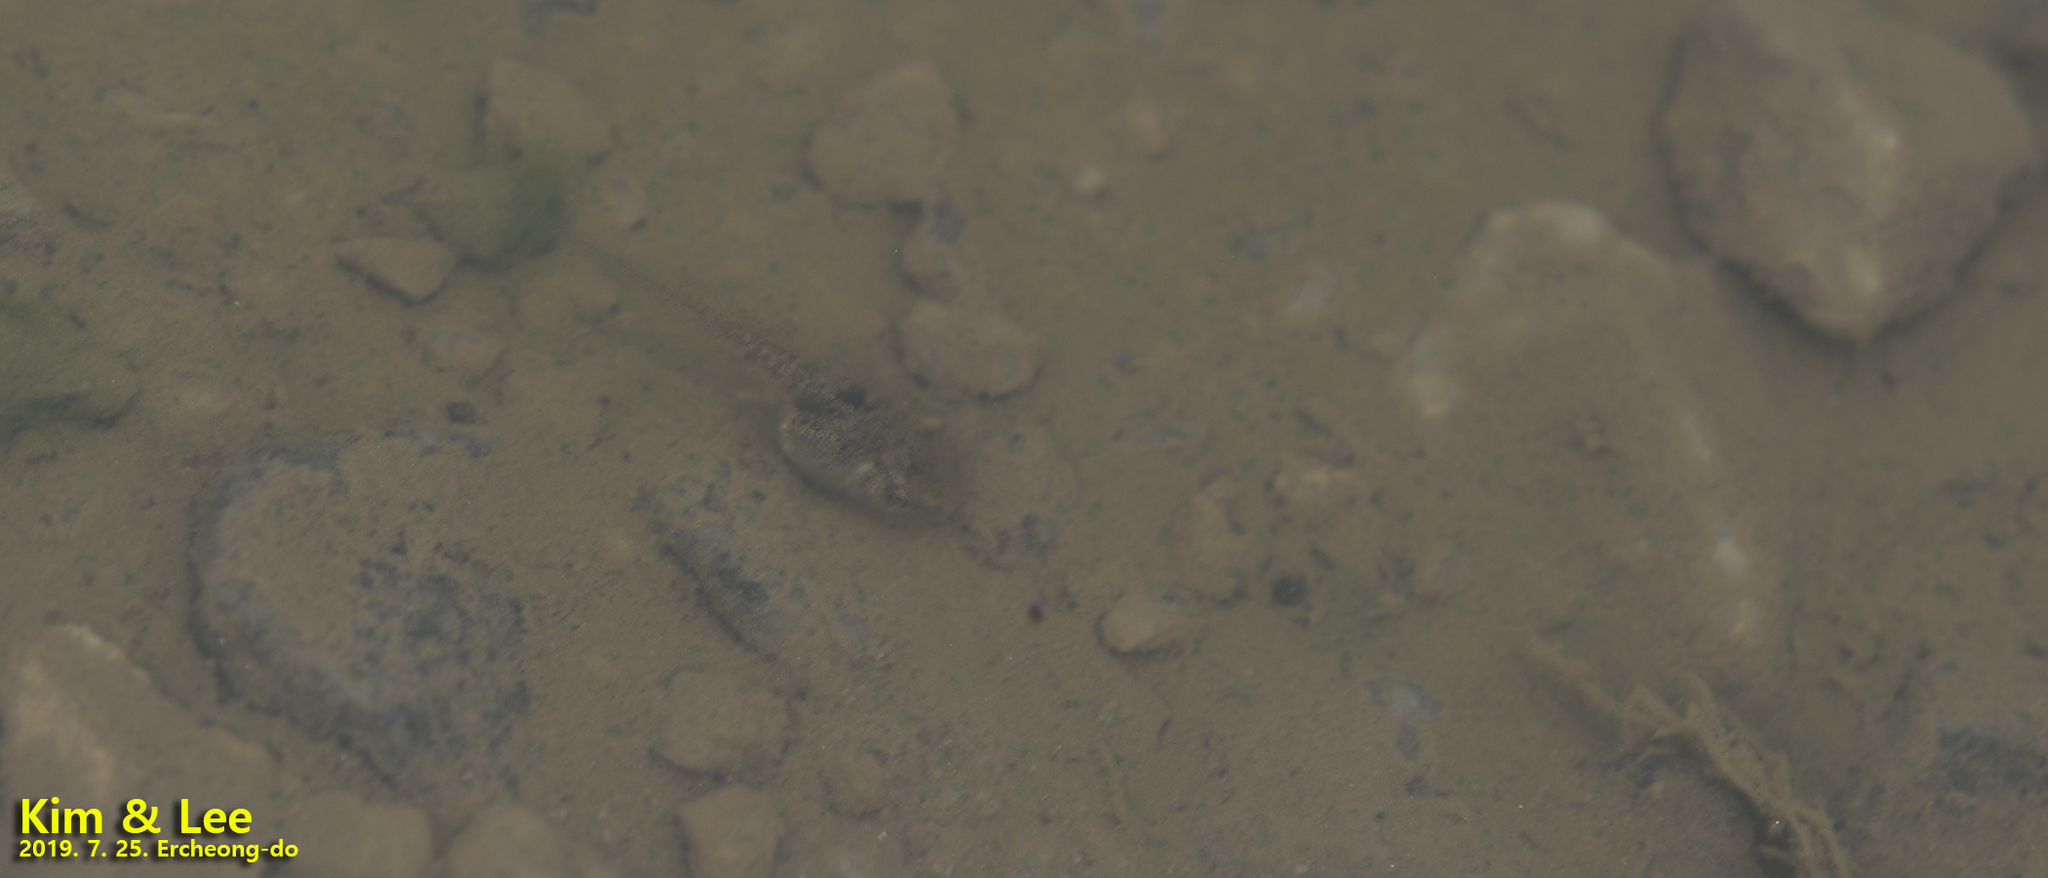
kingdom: Animalia
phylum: Chordata
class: Amphibia
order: Anura
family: Hylidae
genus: Dryophytes
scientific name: Dryophytes japonicus
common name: Japanese treefrog
